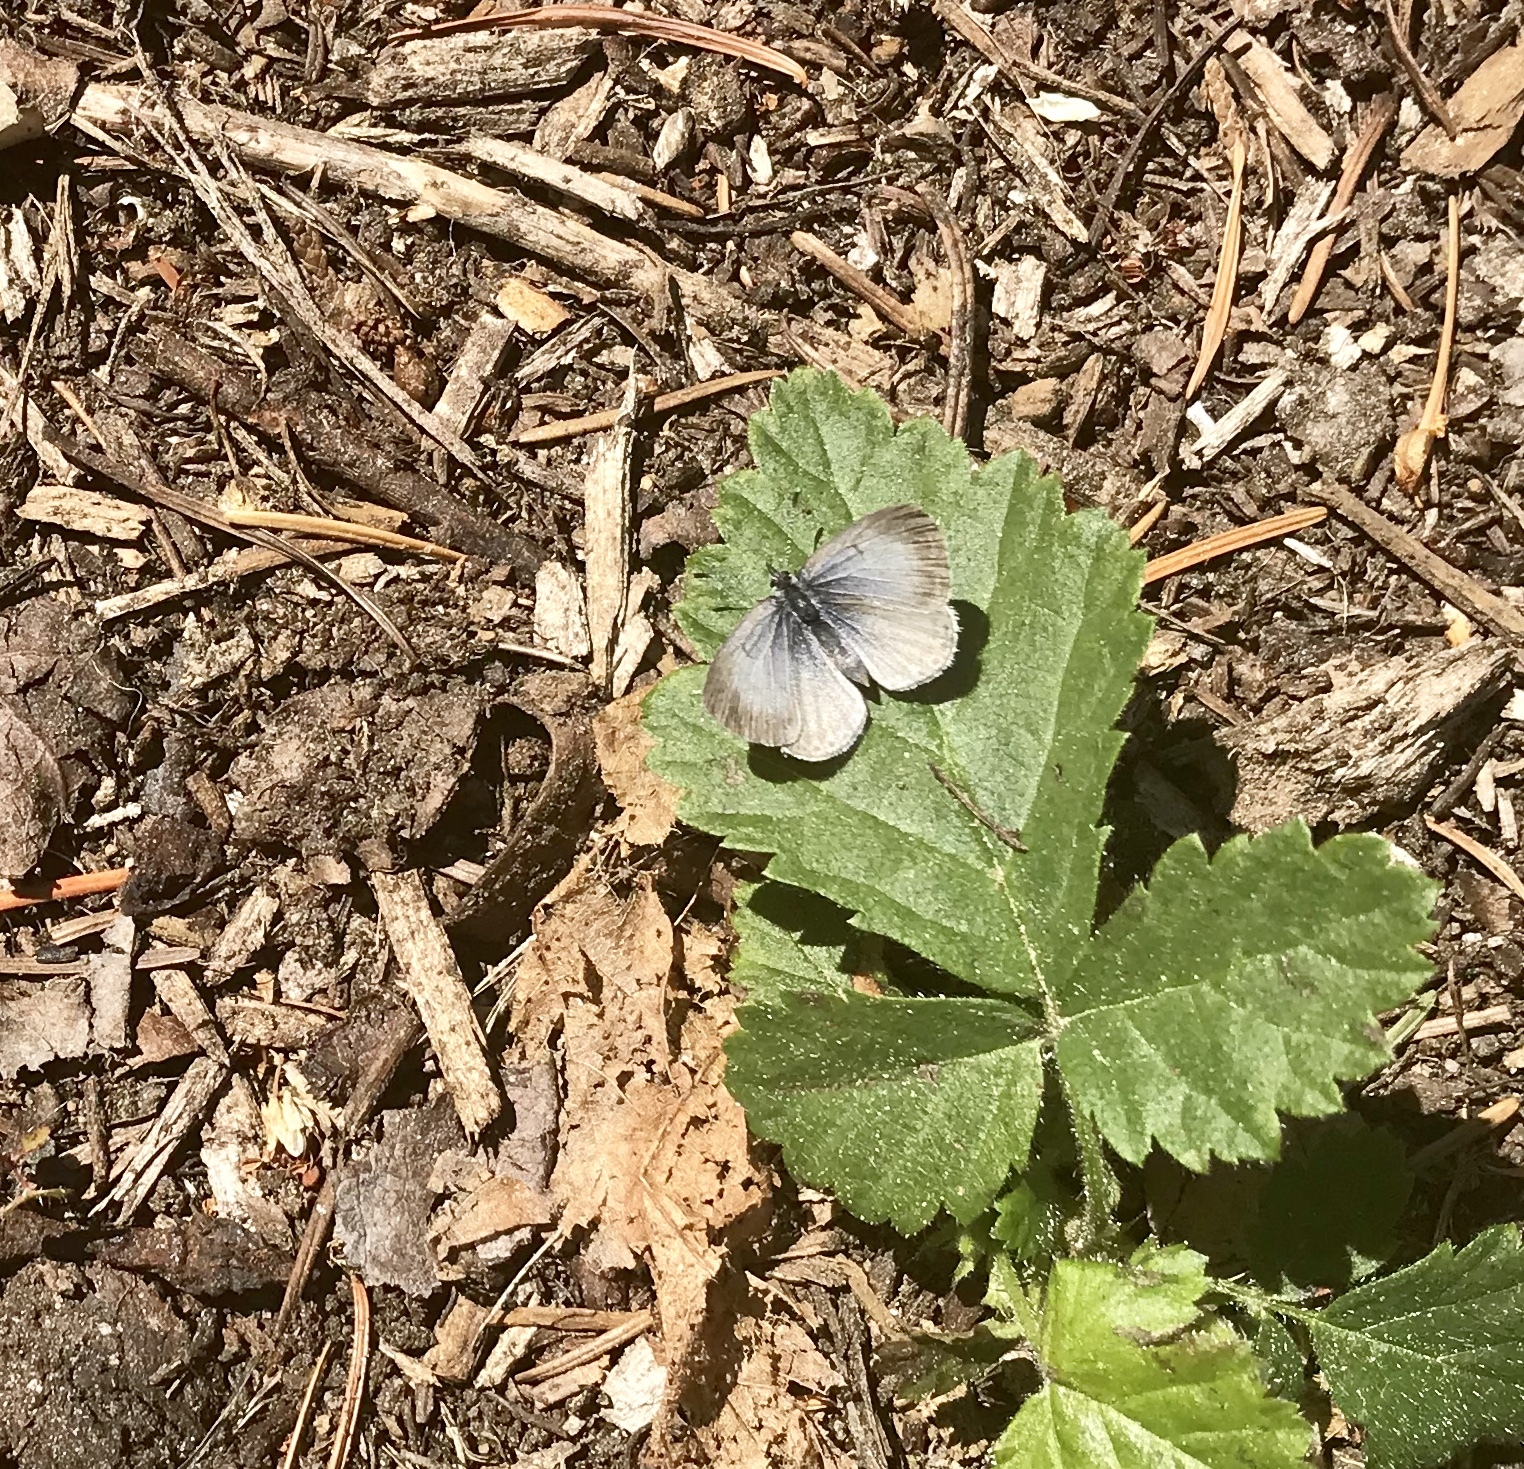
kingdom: Animalia
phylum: Arthropoda
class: Insecta
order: Lepidoptera
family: Lycaenidae
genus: Celastrina
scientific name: Celastrina ladon
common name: Spring azure
